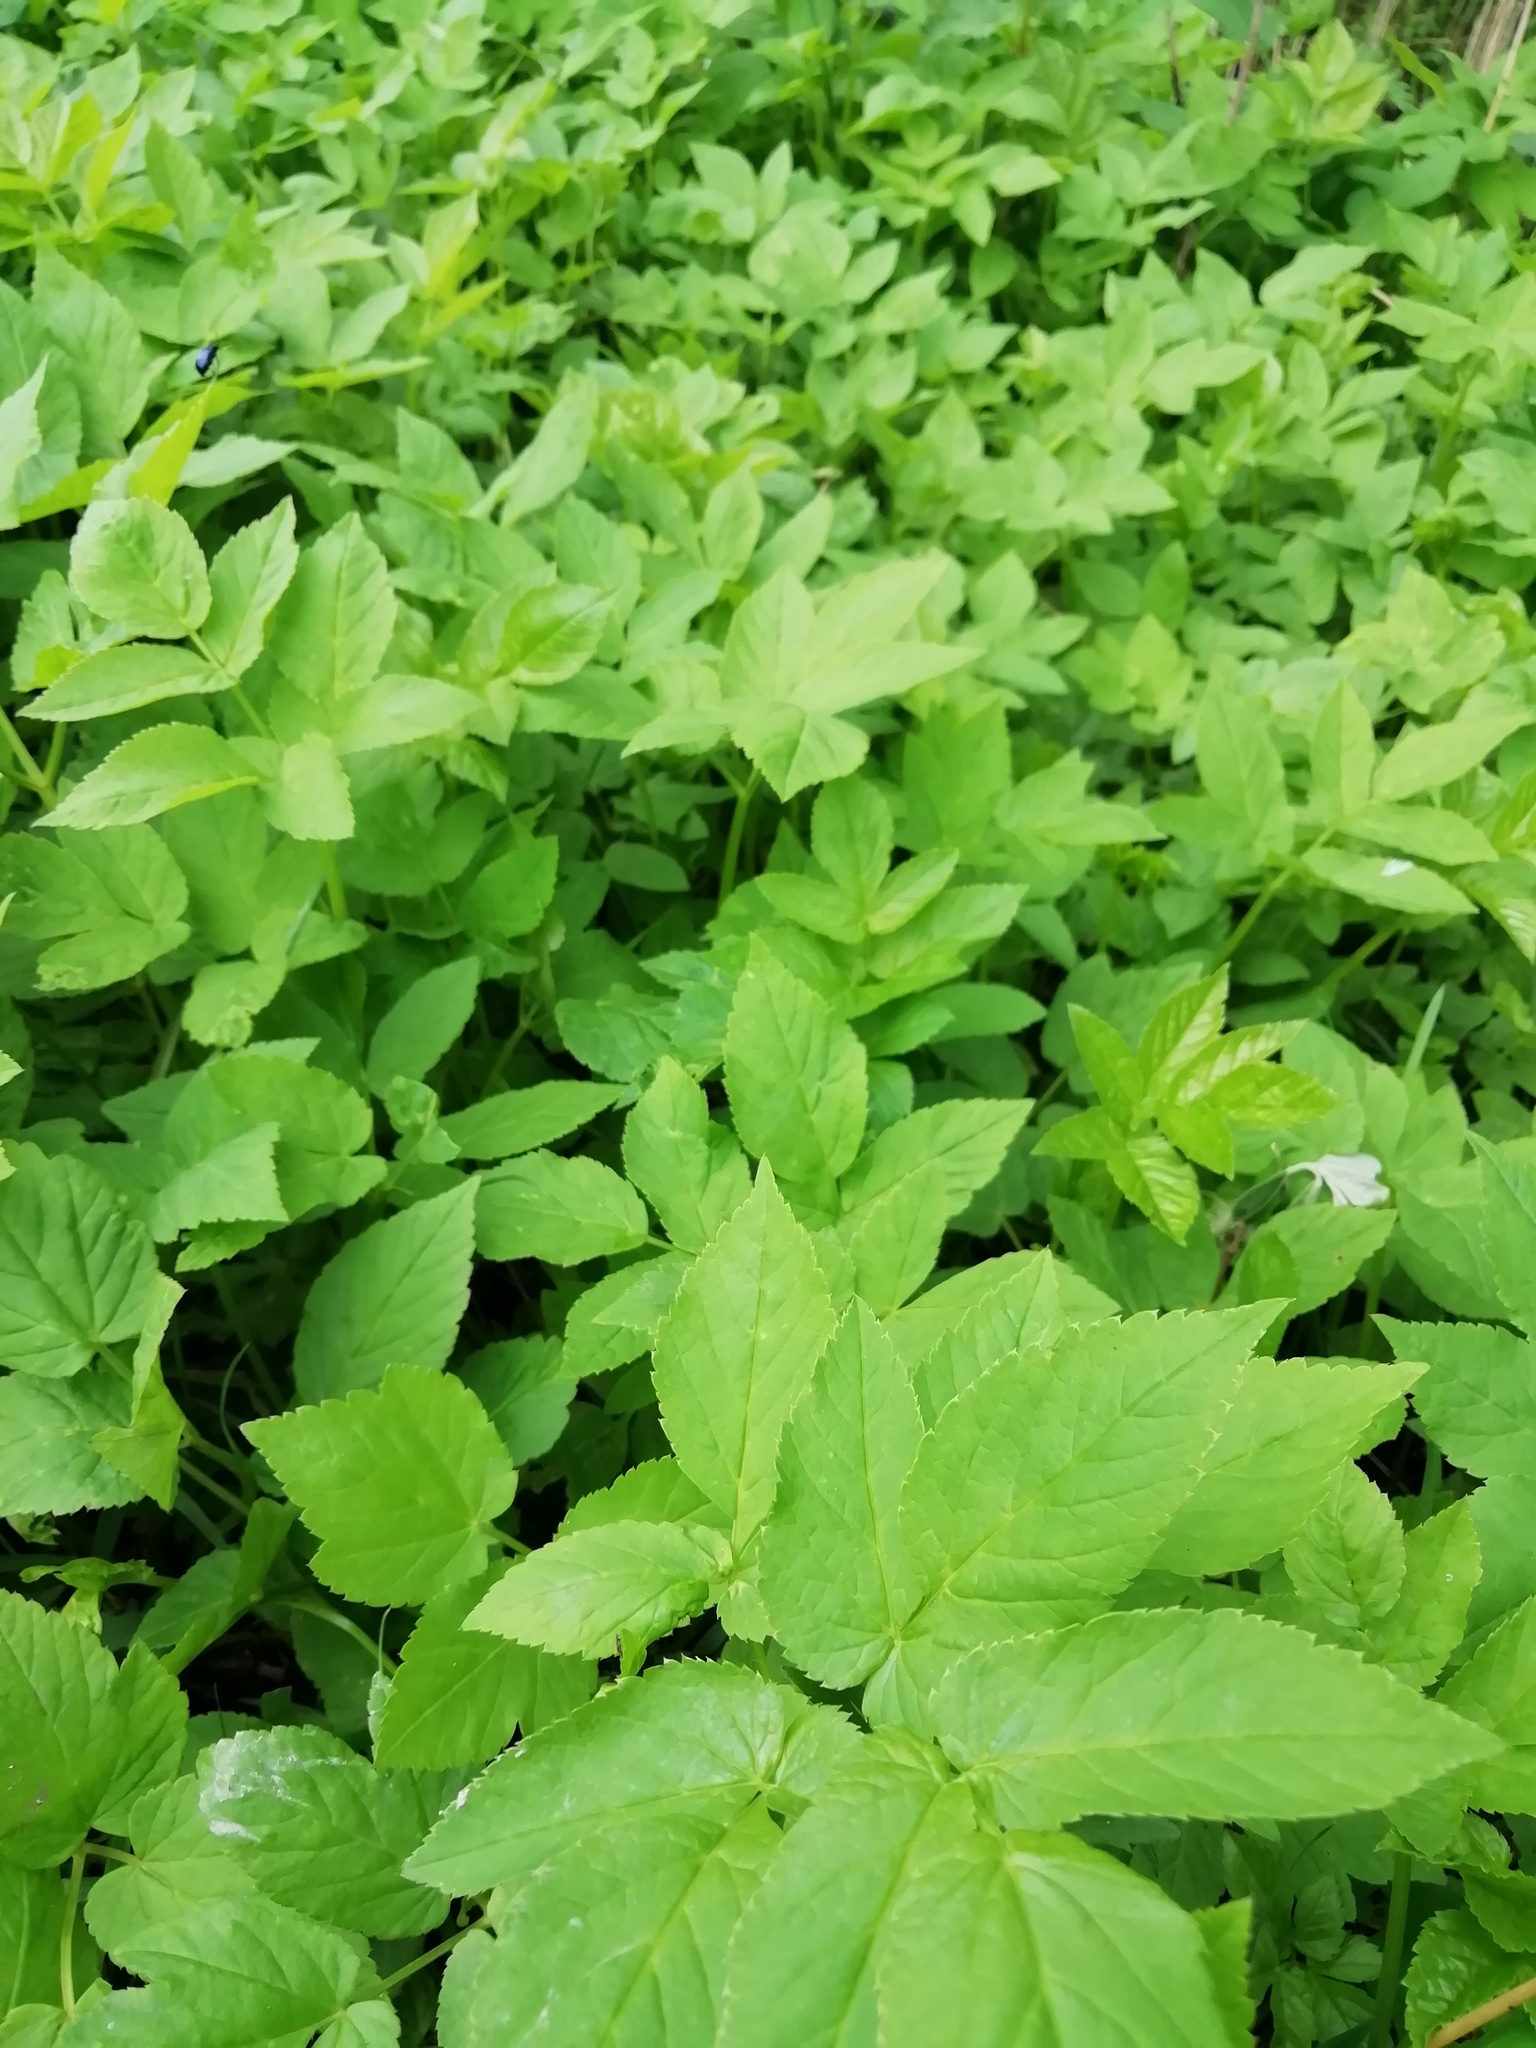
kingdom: Plantae
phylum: Tracheophyta
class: Magnoliopsida
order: Apiales
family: Apiaceae
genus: Aegopodium
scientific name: Aegopodium podagraria
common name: Ground-elder
